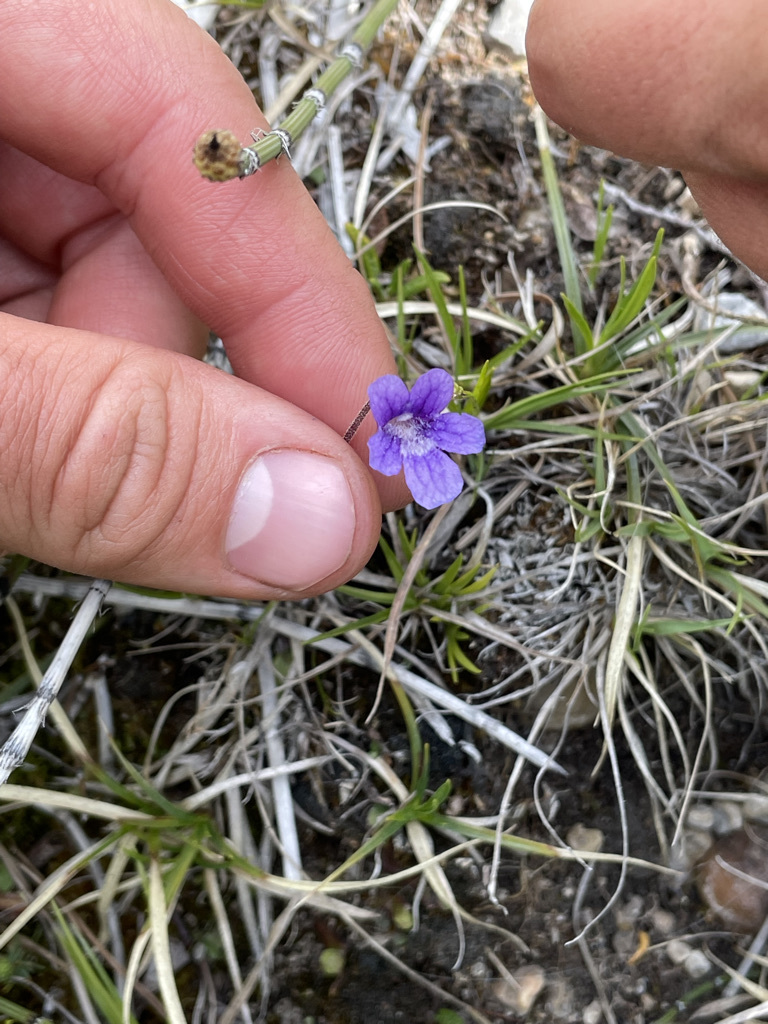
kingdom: Plantae
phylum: Tracheophyta
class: Magnoliopsida
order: Lamiales
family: Lentibulariaceae
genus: Pinguicula
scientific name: Pinguicula vulgaris
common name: Common butterwort
